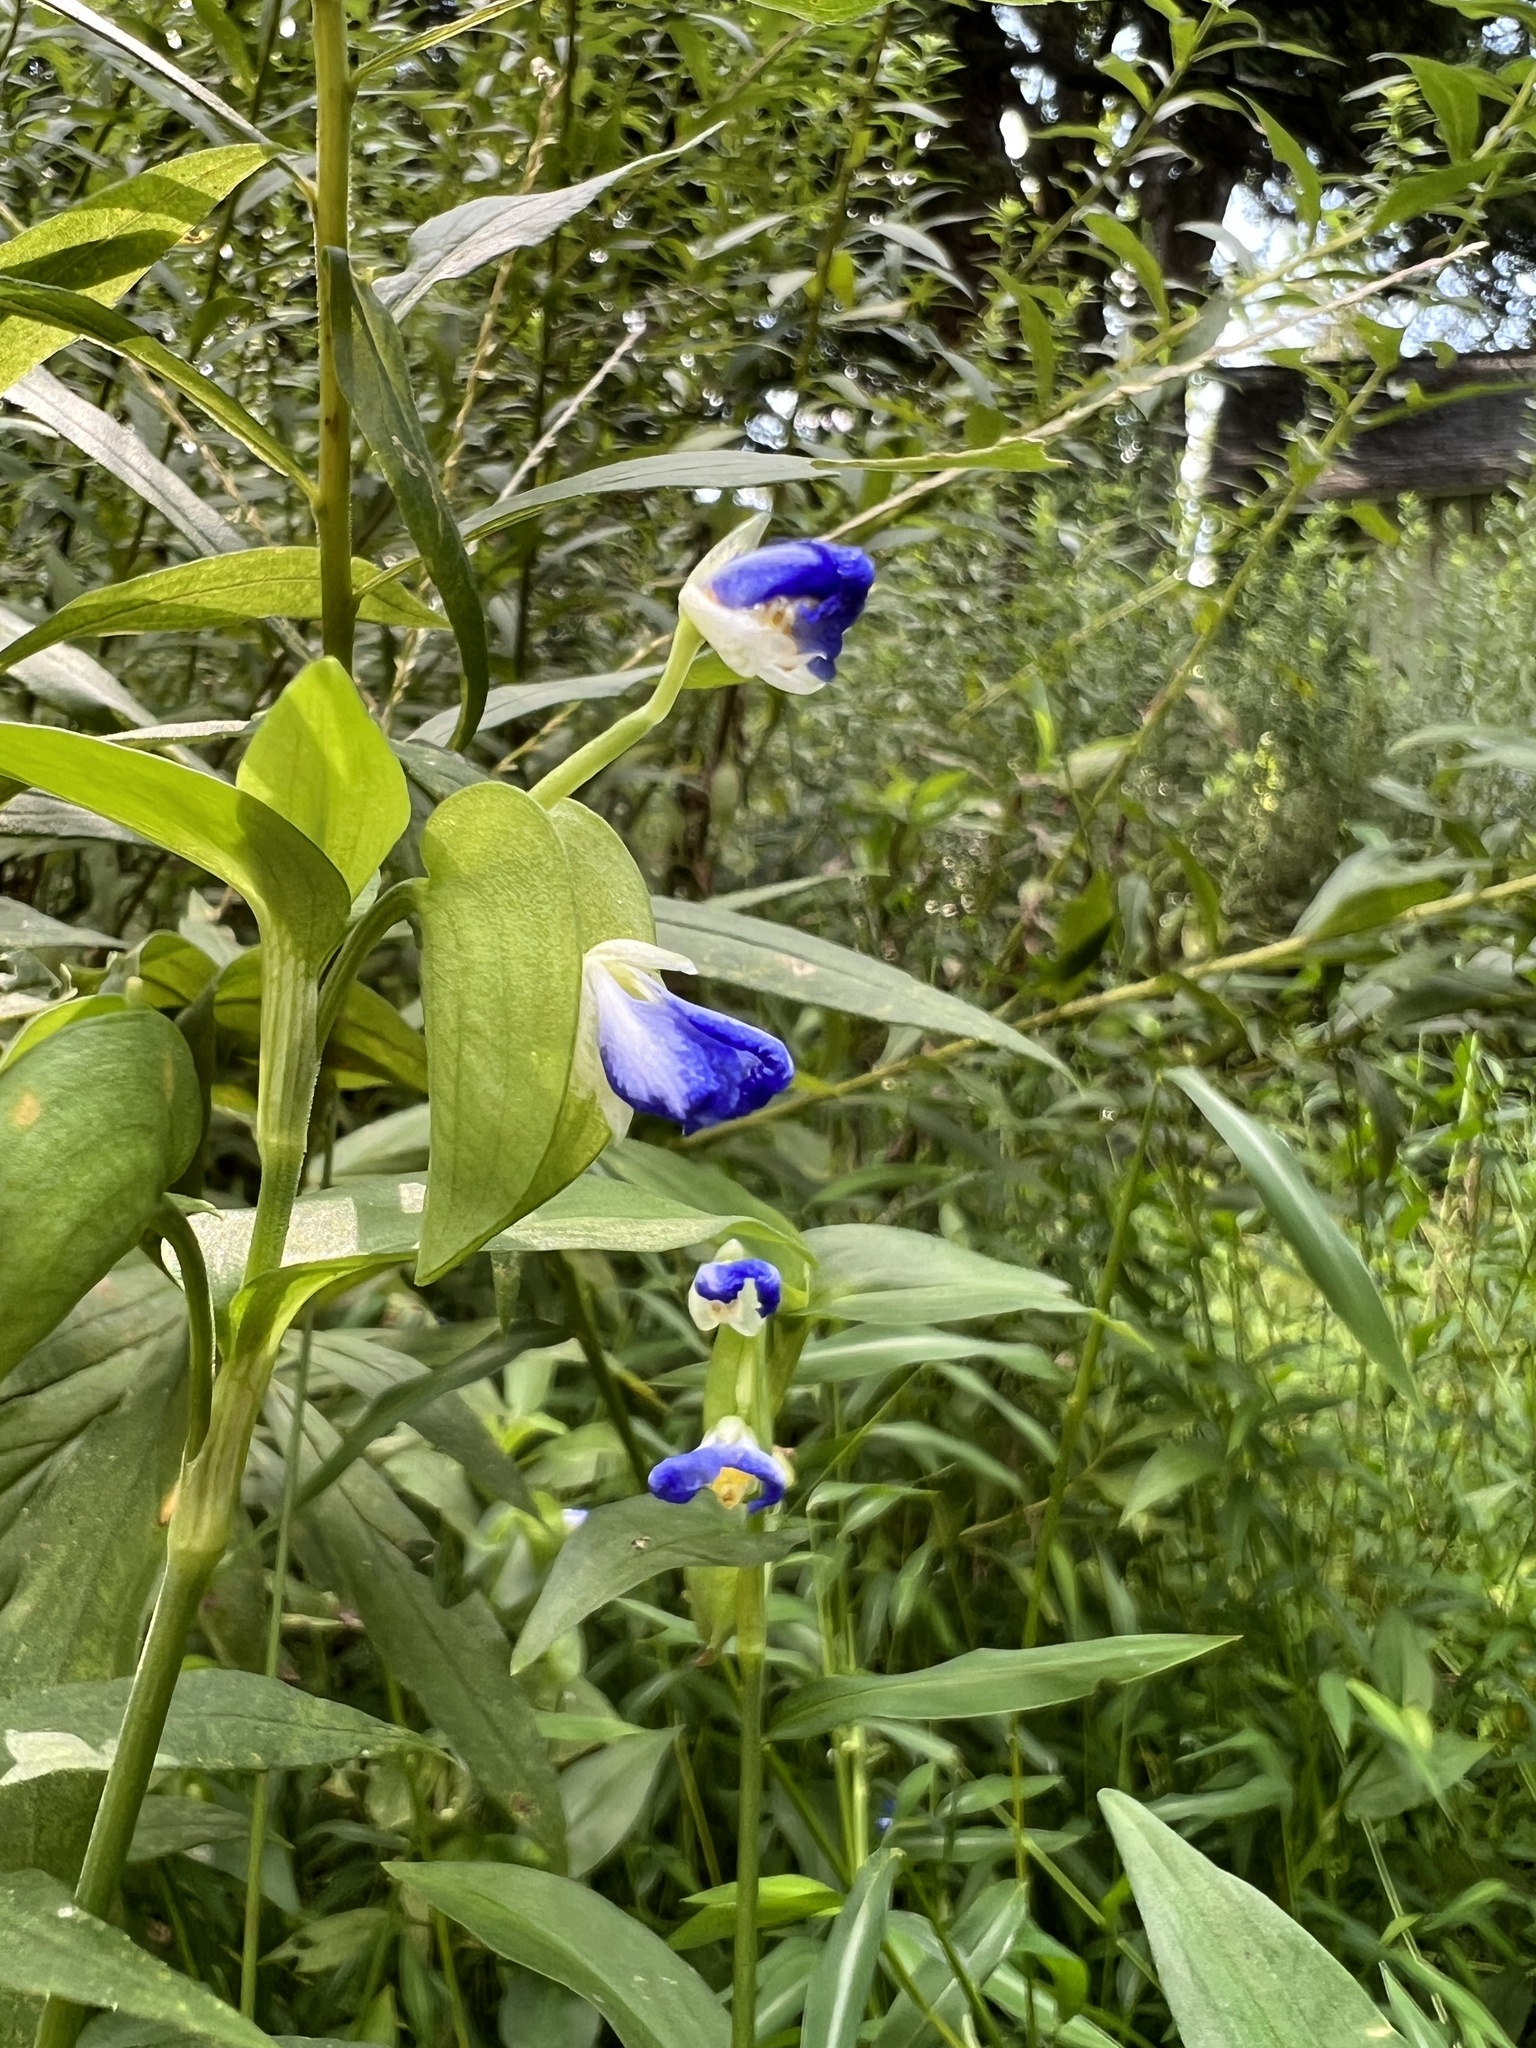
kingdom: Plantae
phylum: Tracheophyta
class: Liliopsida
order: Commelinales
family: Commelinaceae
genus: Commelina
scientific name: Commelina communis
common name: Asiatic dayflower
